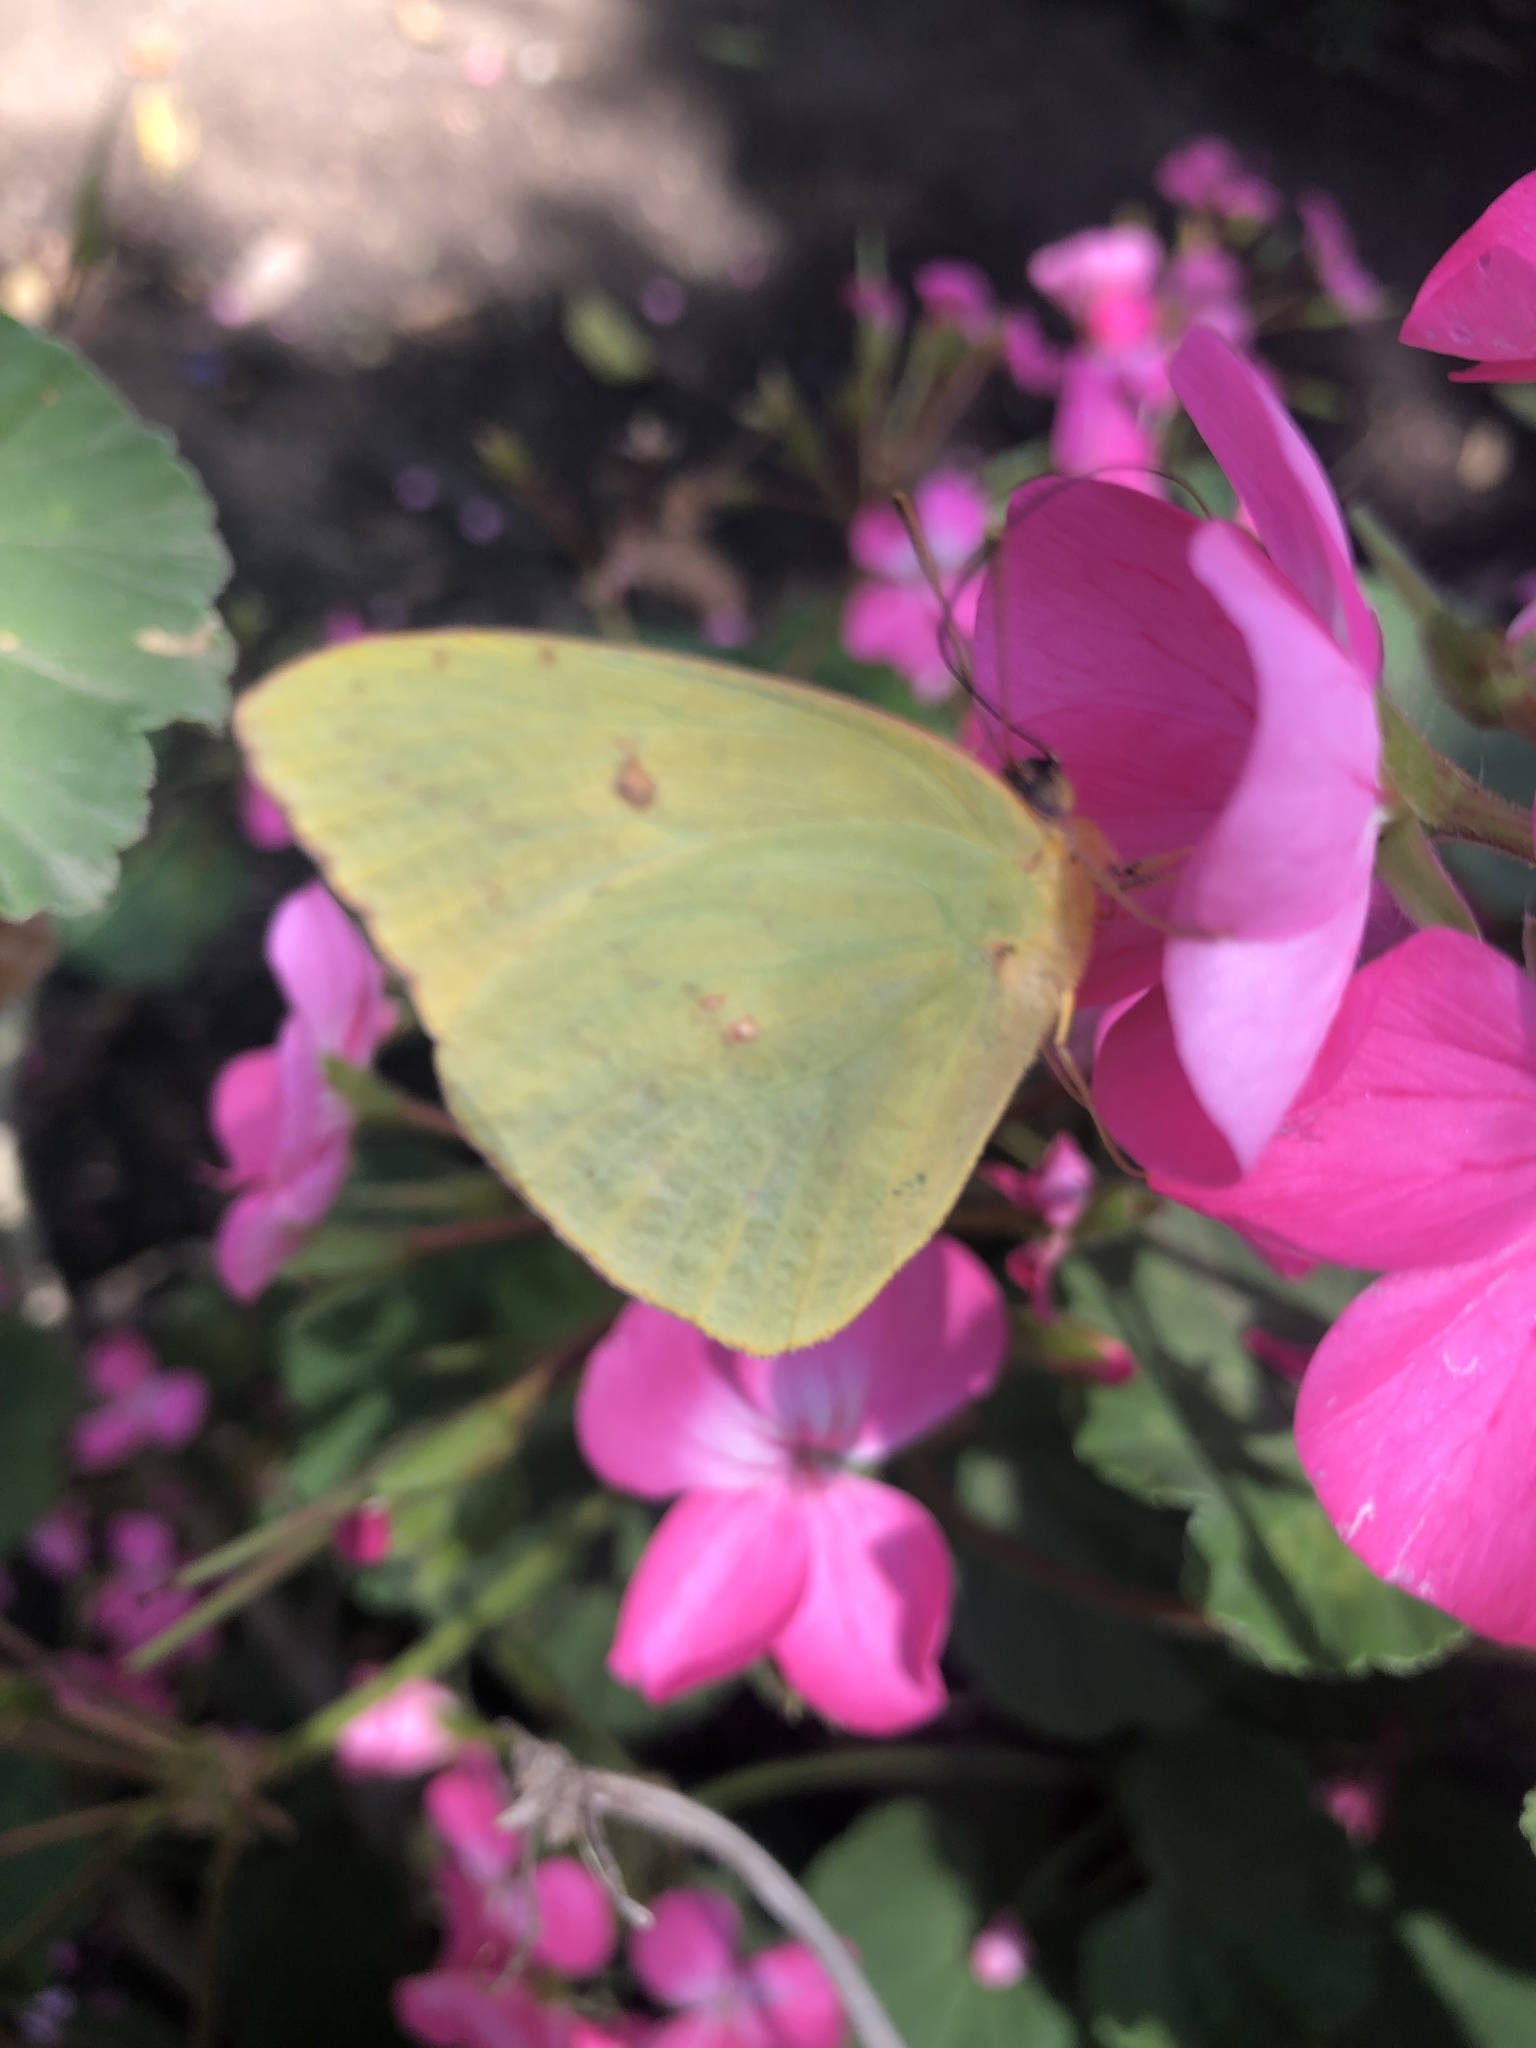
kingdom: Animalia
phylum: Arthropoda
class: Insecta
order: Lepidoptera
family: Pieridae
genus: Phoebis
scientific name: Phoebis sennae
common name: Cloudless sulphur
